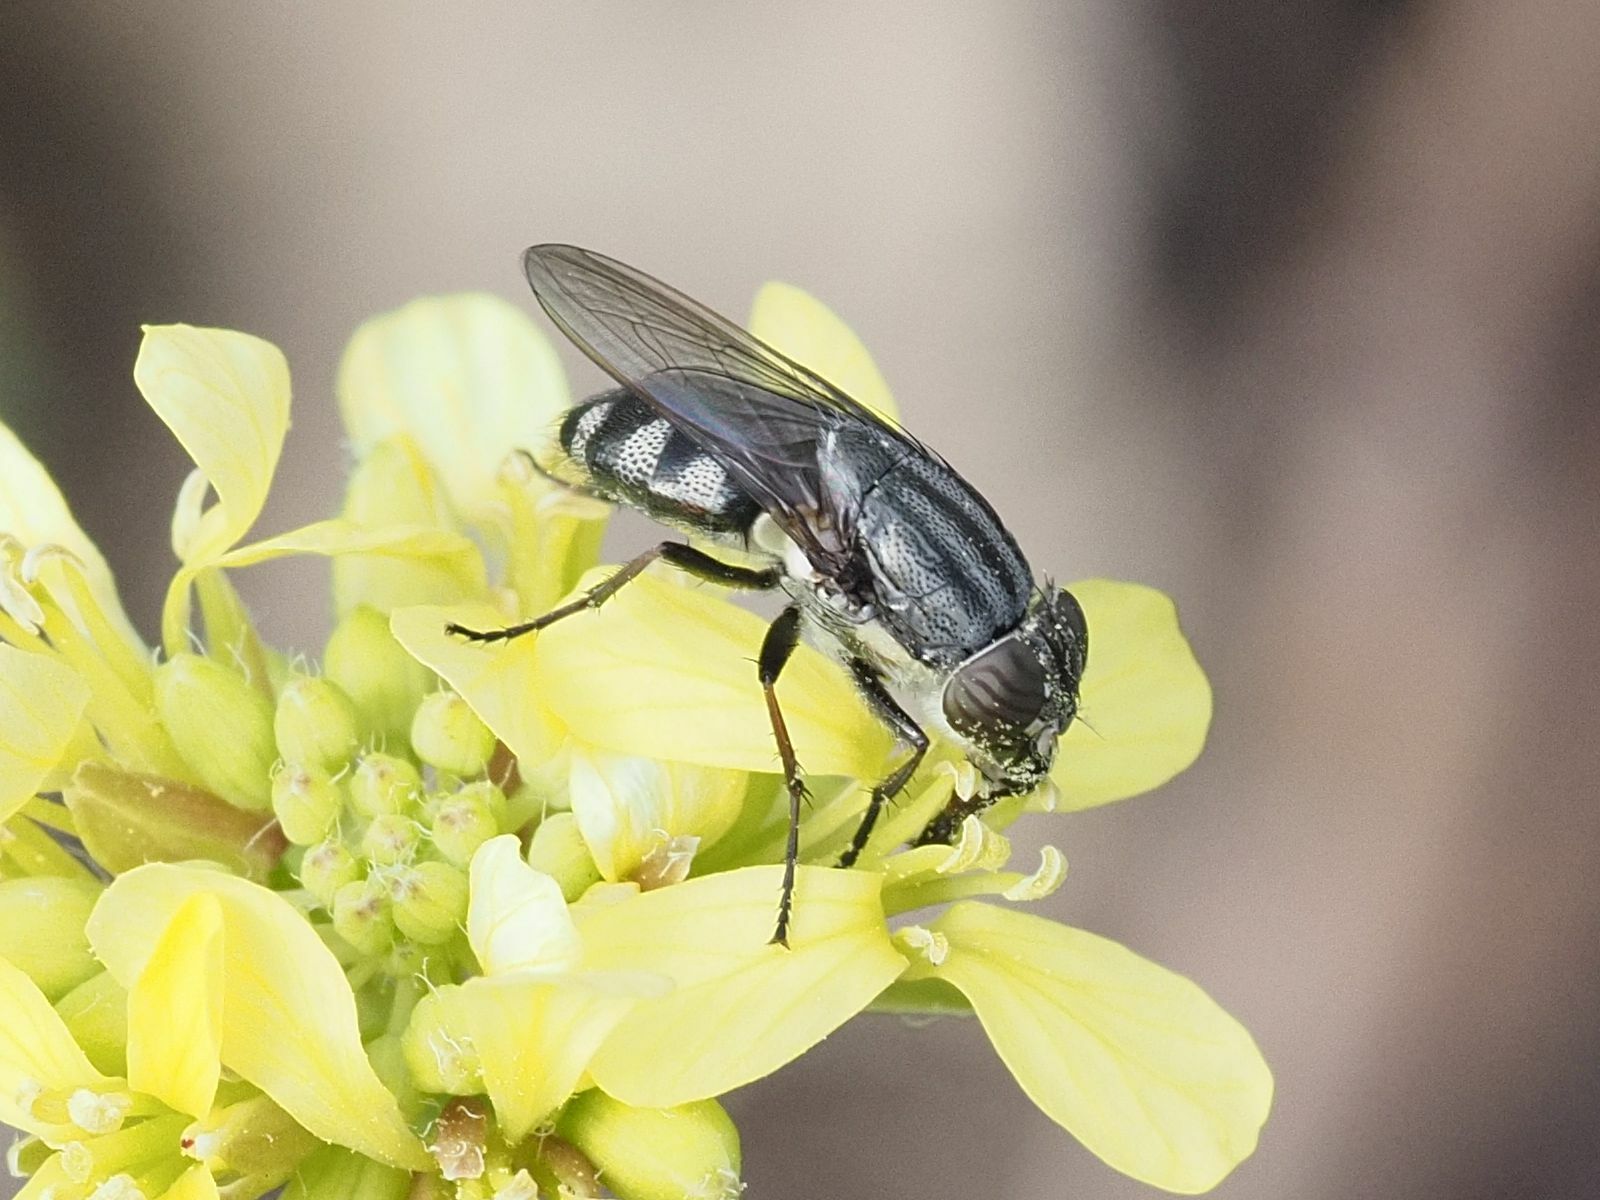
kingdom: Animalia
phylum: Arthropoda
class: Insecta
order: Diptera
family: Calliphoridae
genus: Stomorhina
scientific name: Stomorhina lunata
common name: Locust blowfly
